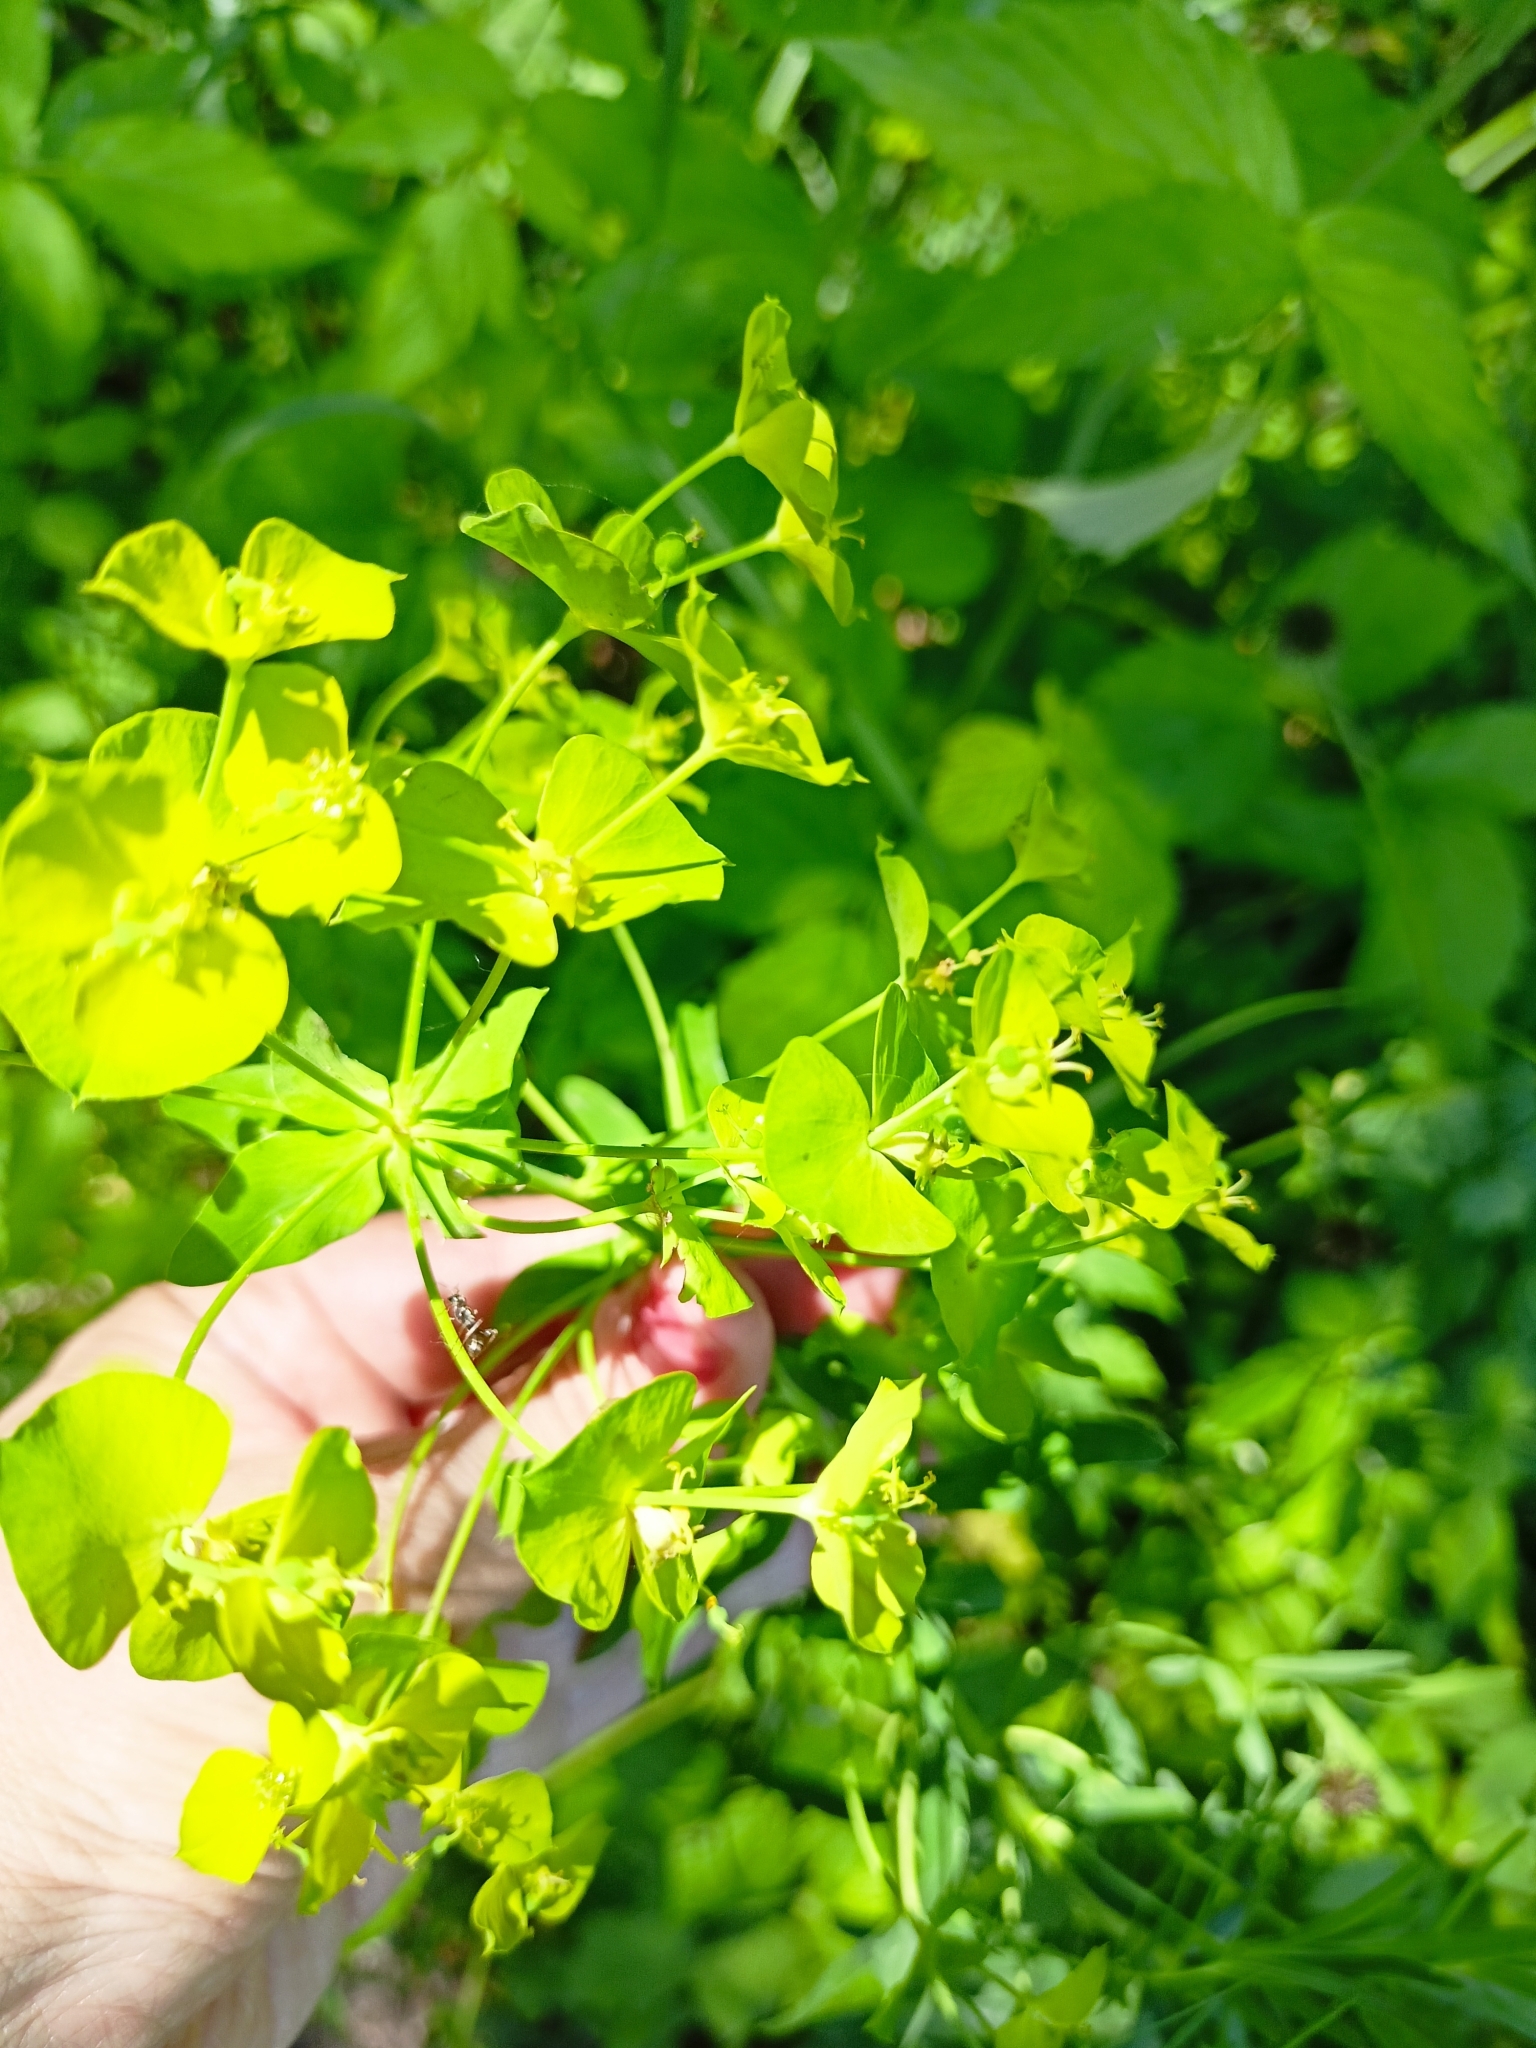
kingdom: Plantae
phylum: Tracheophyta
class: Magnoliopsida
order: Malpighiales
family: Euphorbiaceae
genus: Euphorbia
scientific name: Euphorbia virgata
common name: Leafy spurge
